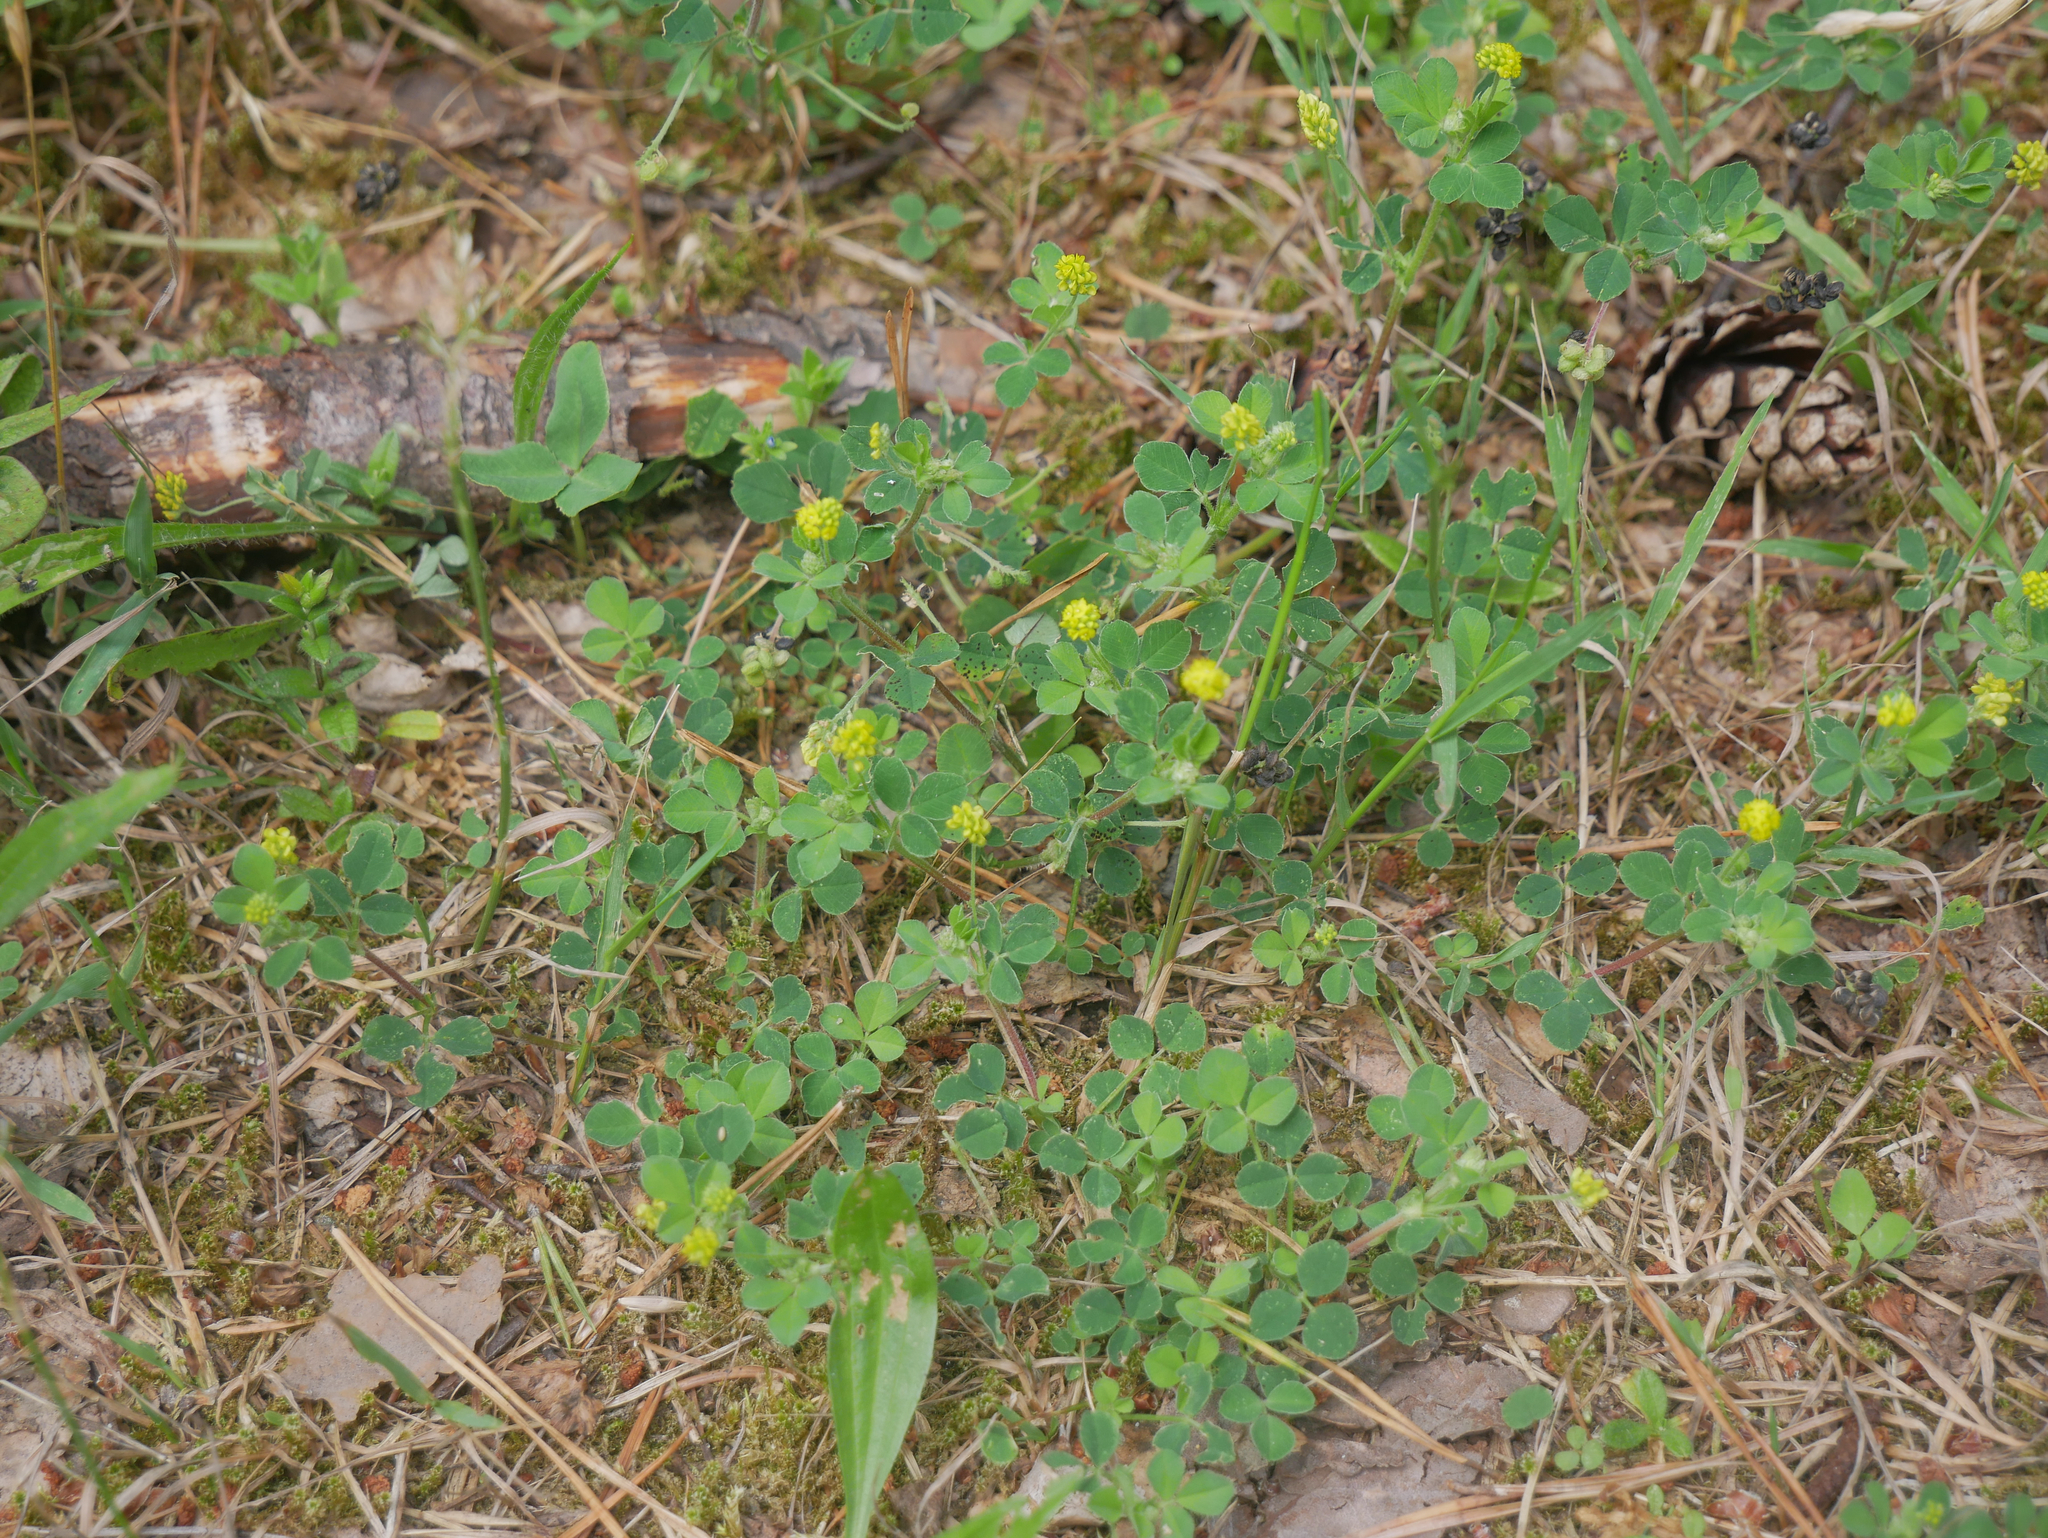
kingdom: Plantae
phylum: Tracheophyta
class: Magnoliopsida
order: Fabales
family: Fabaceae
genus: Medicago
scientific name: Medicago lupulina
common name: Black medick
